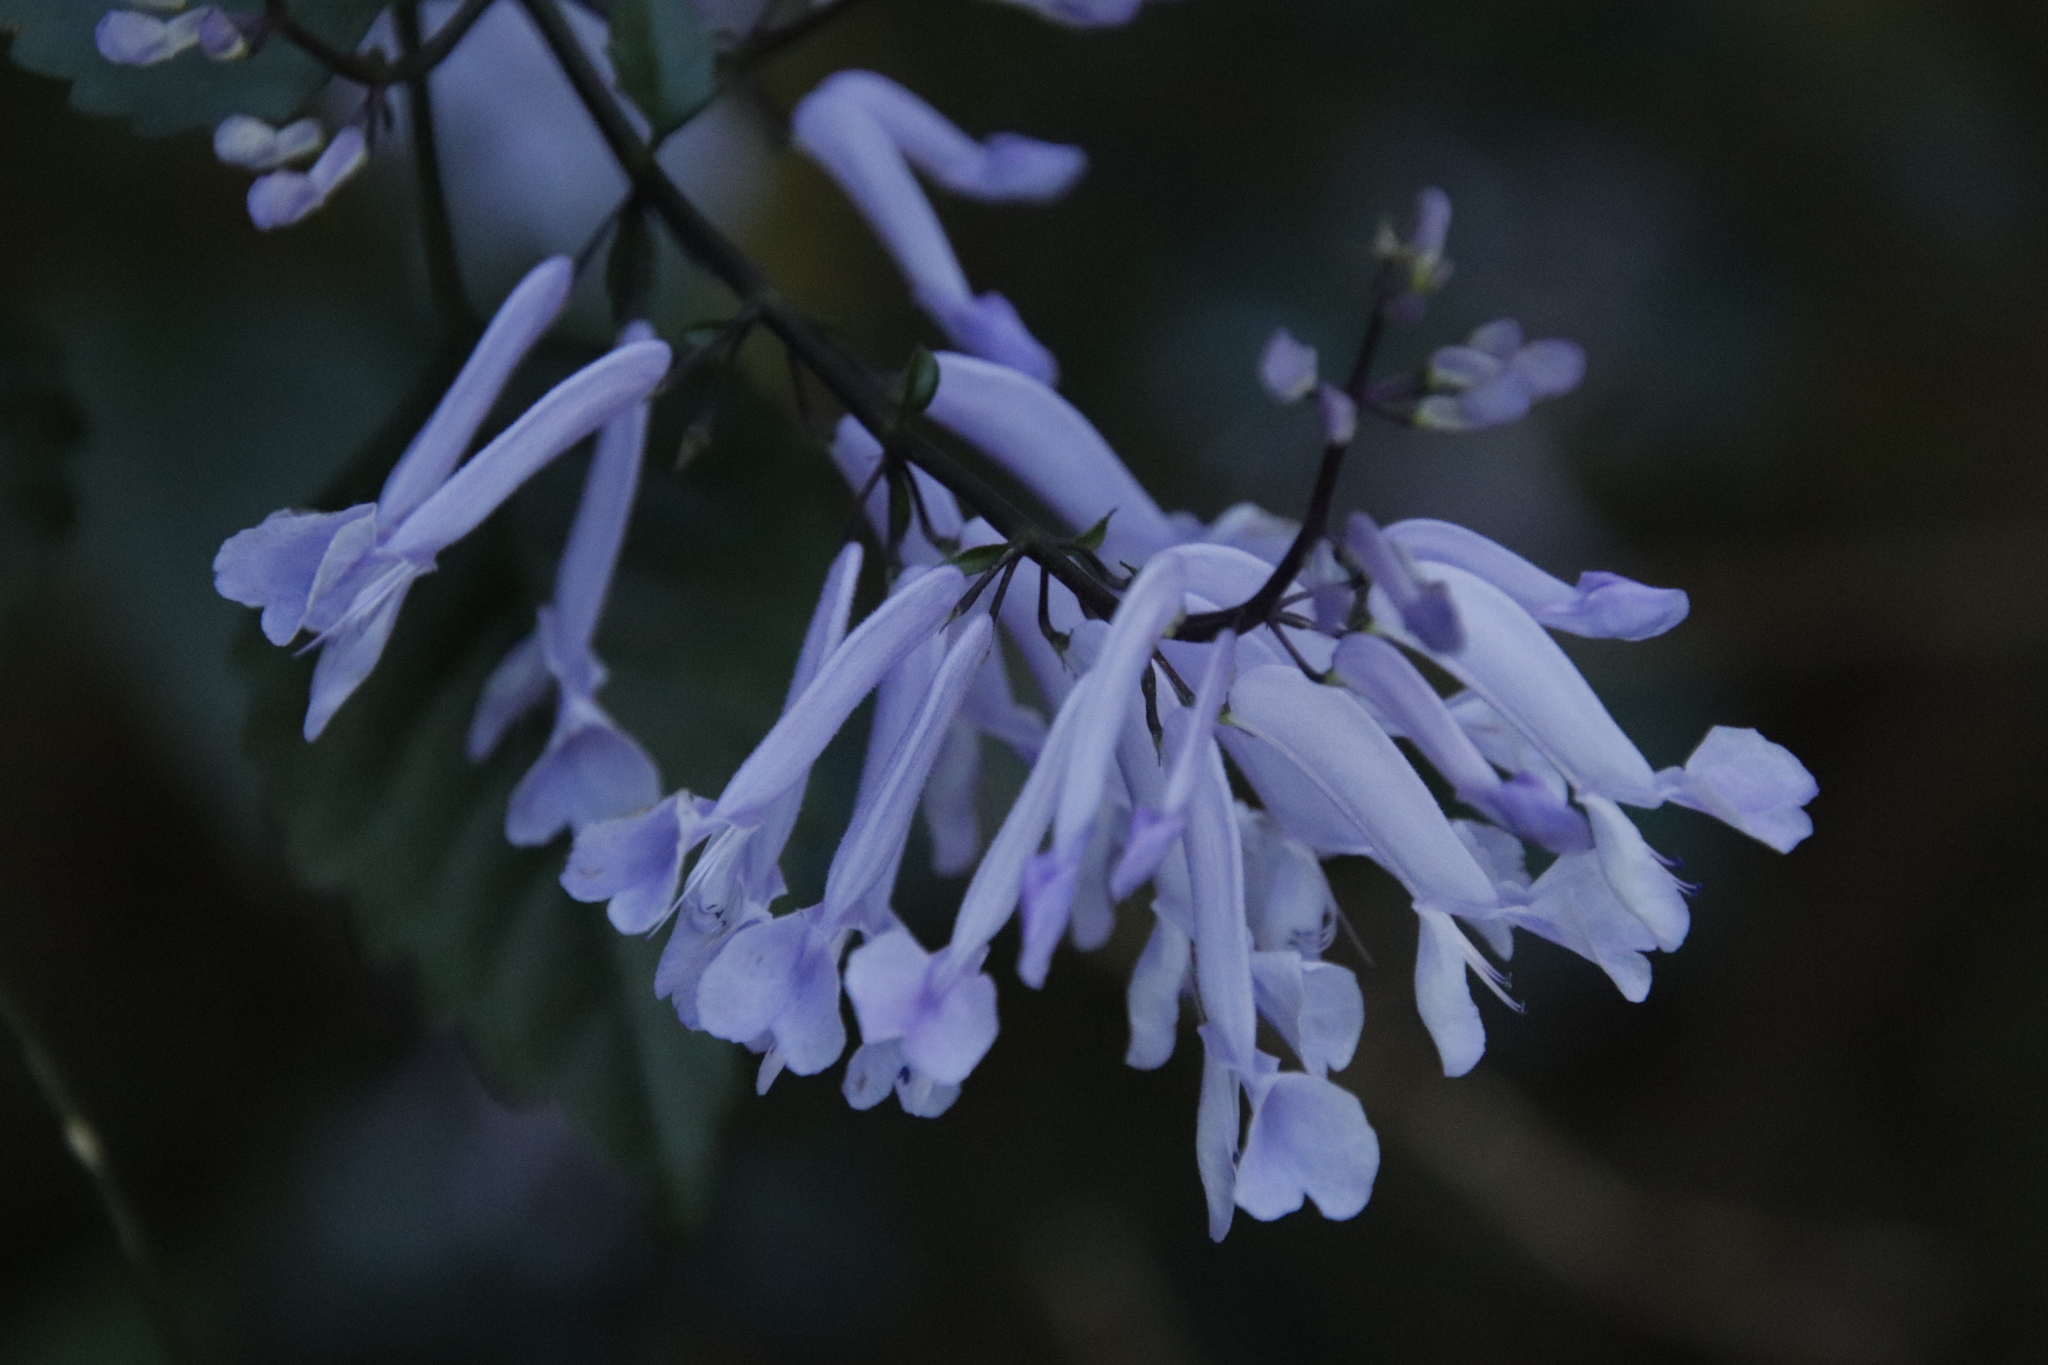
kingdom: Plantae
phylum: Tracheophyta
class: Magnoliopsida
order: Lamiales
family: Lamiaceae
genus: Plectranthus
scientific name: Plectranthus saccatus
